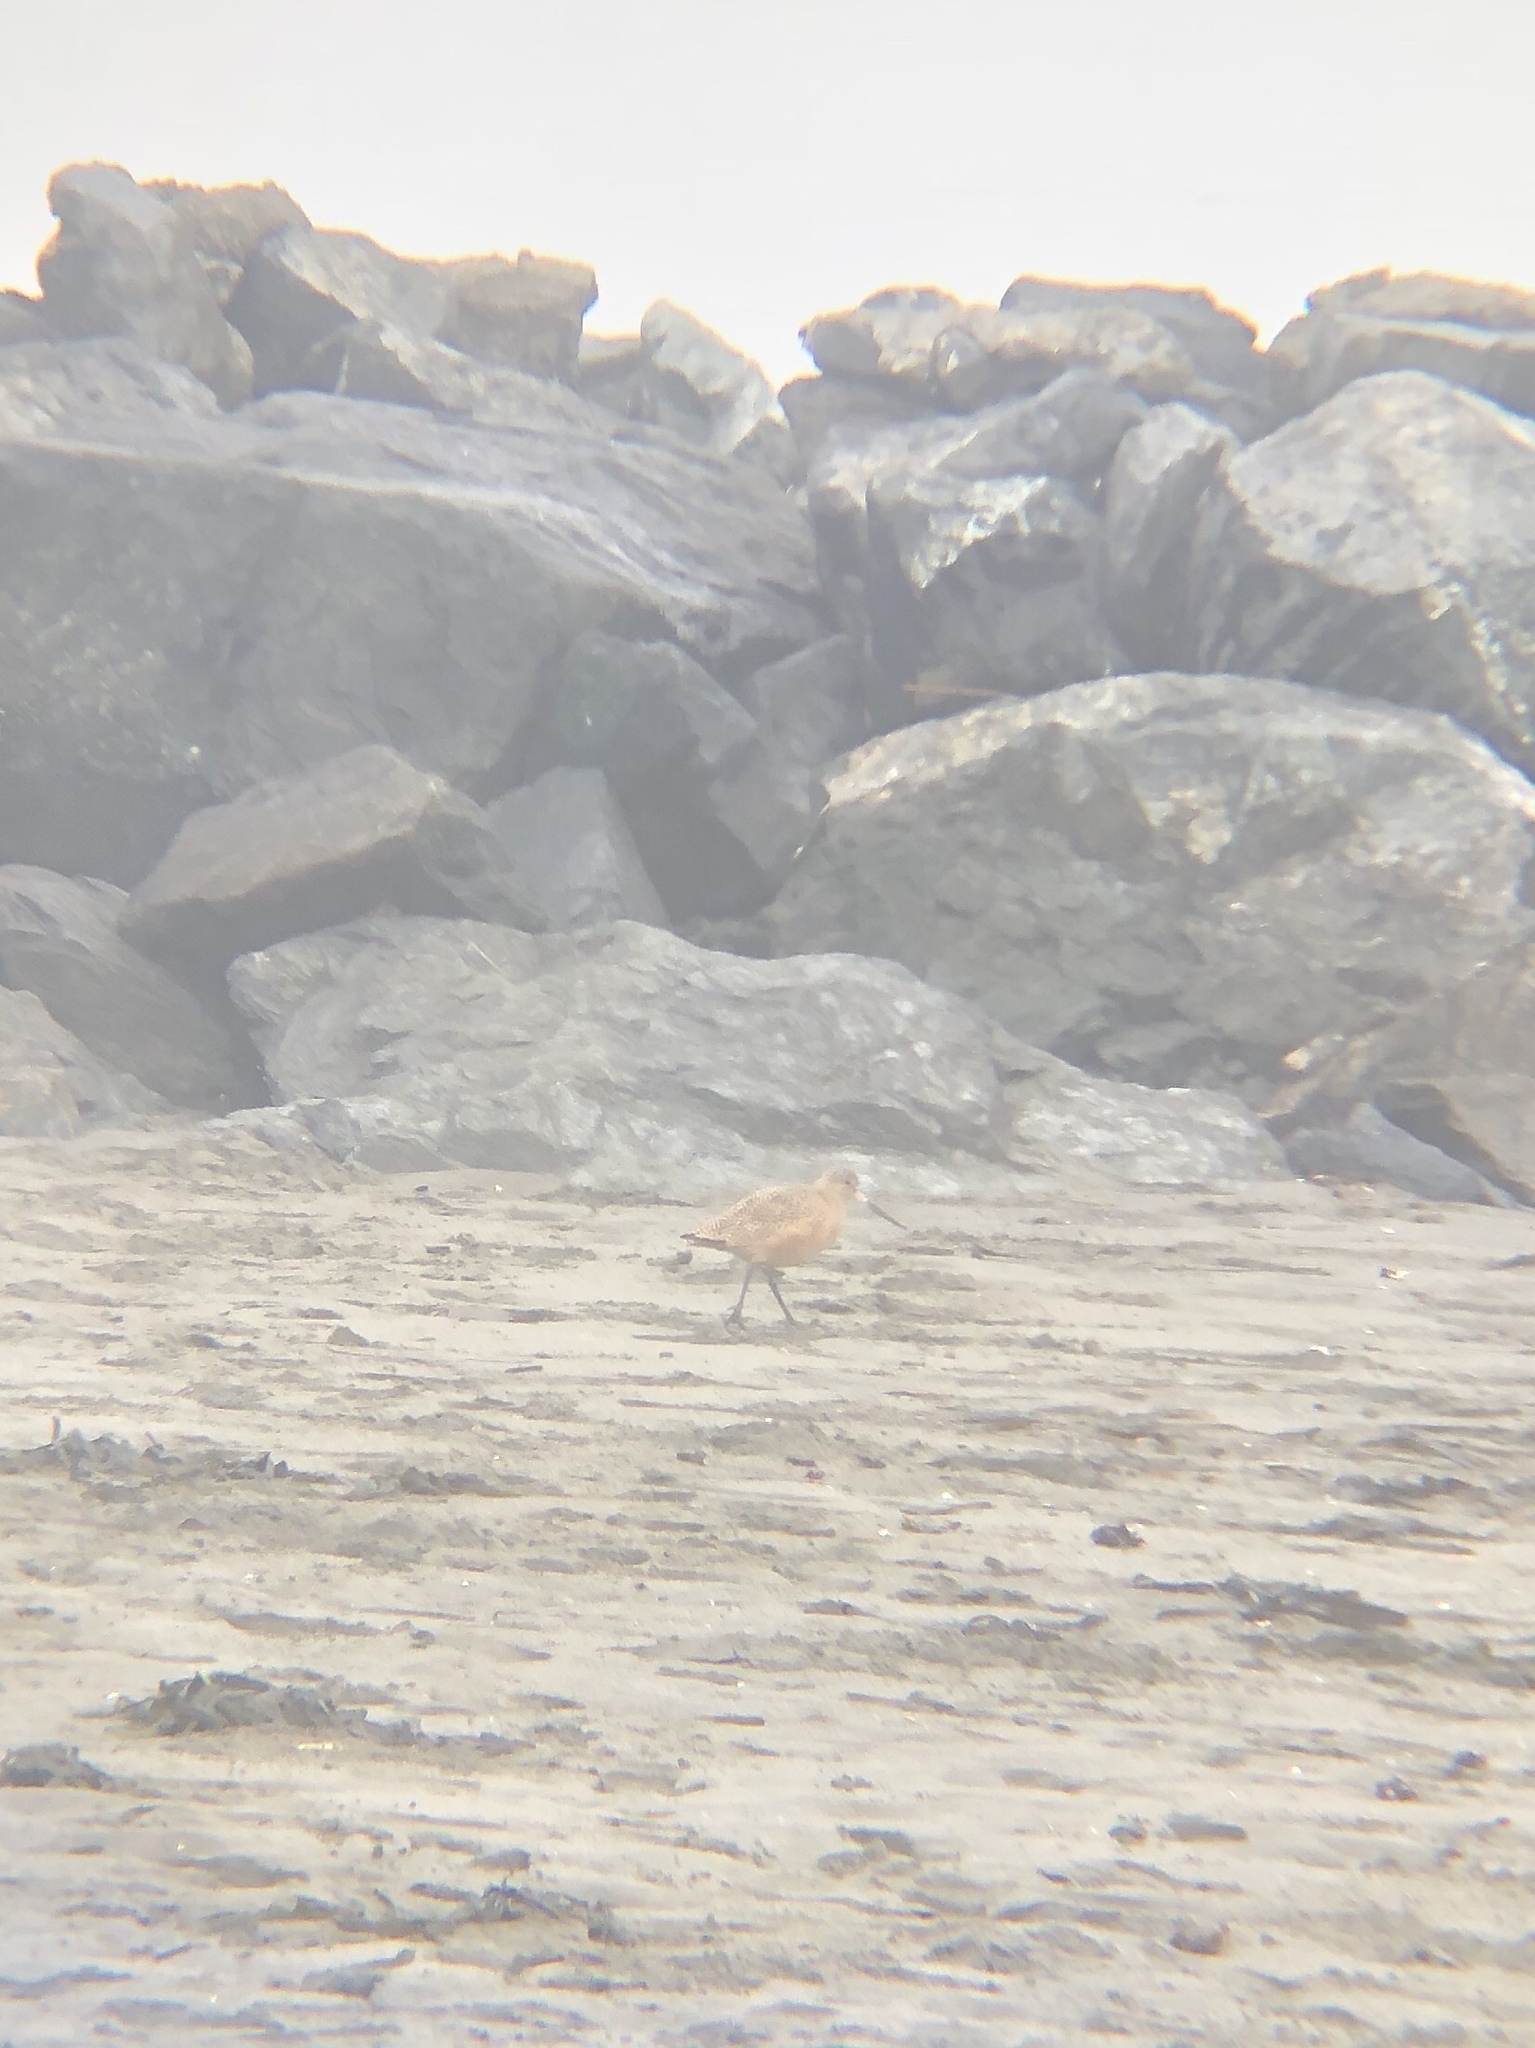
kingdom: Animalia
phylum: Chordata
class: Aves
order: Charadriiformes
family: Scolopacidae
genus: Limosa
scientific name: Limosa fedoa
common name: Marbled godwit
